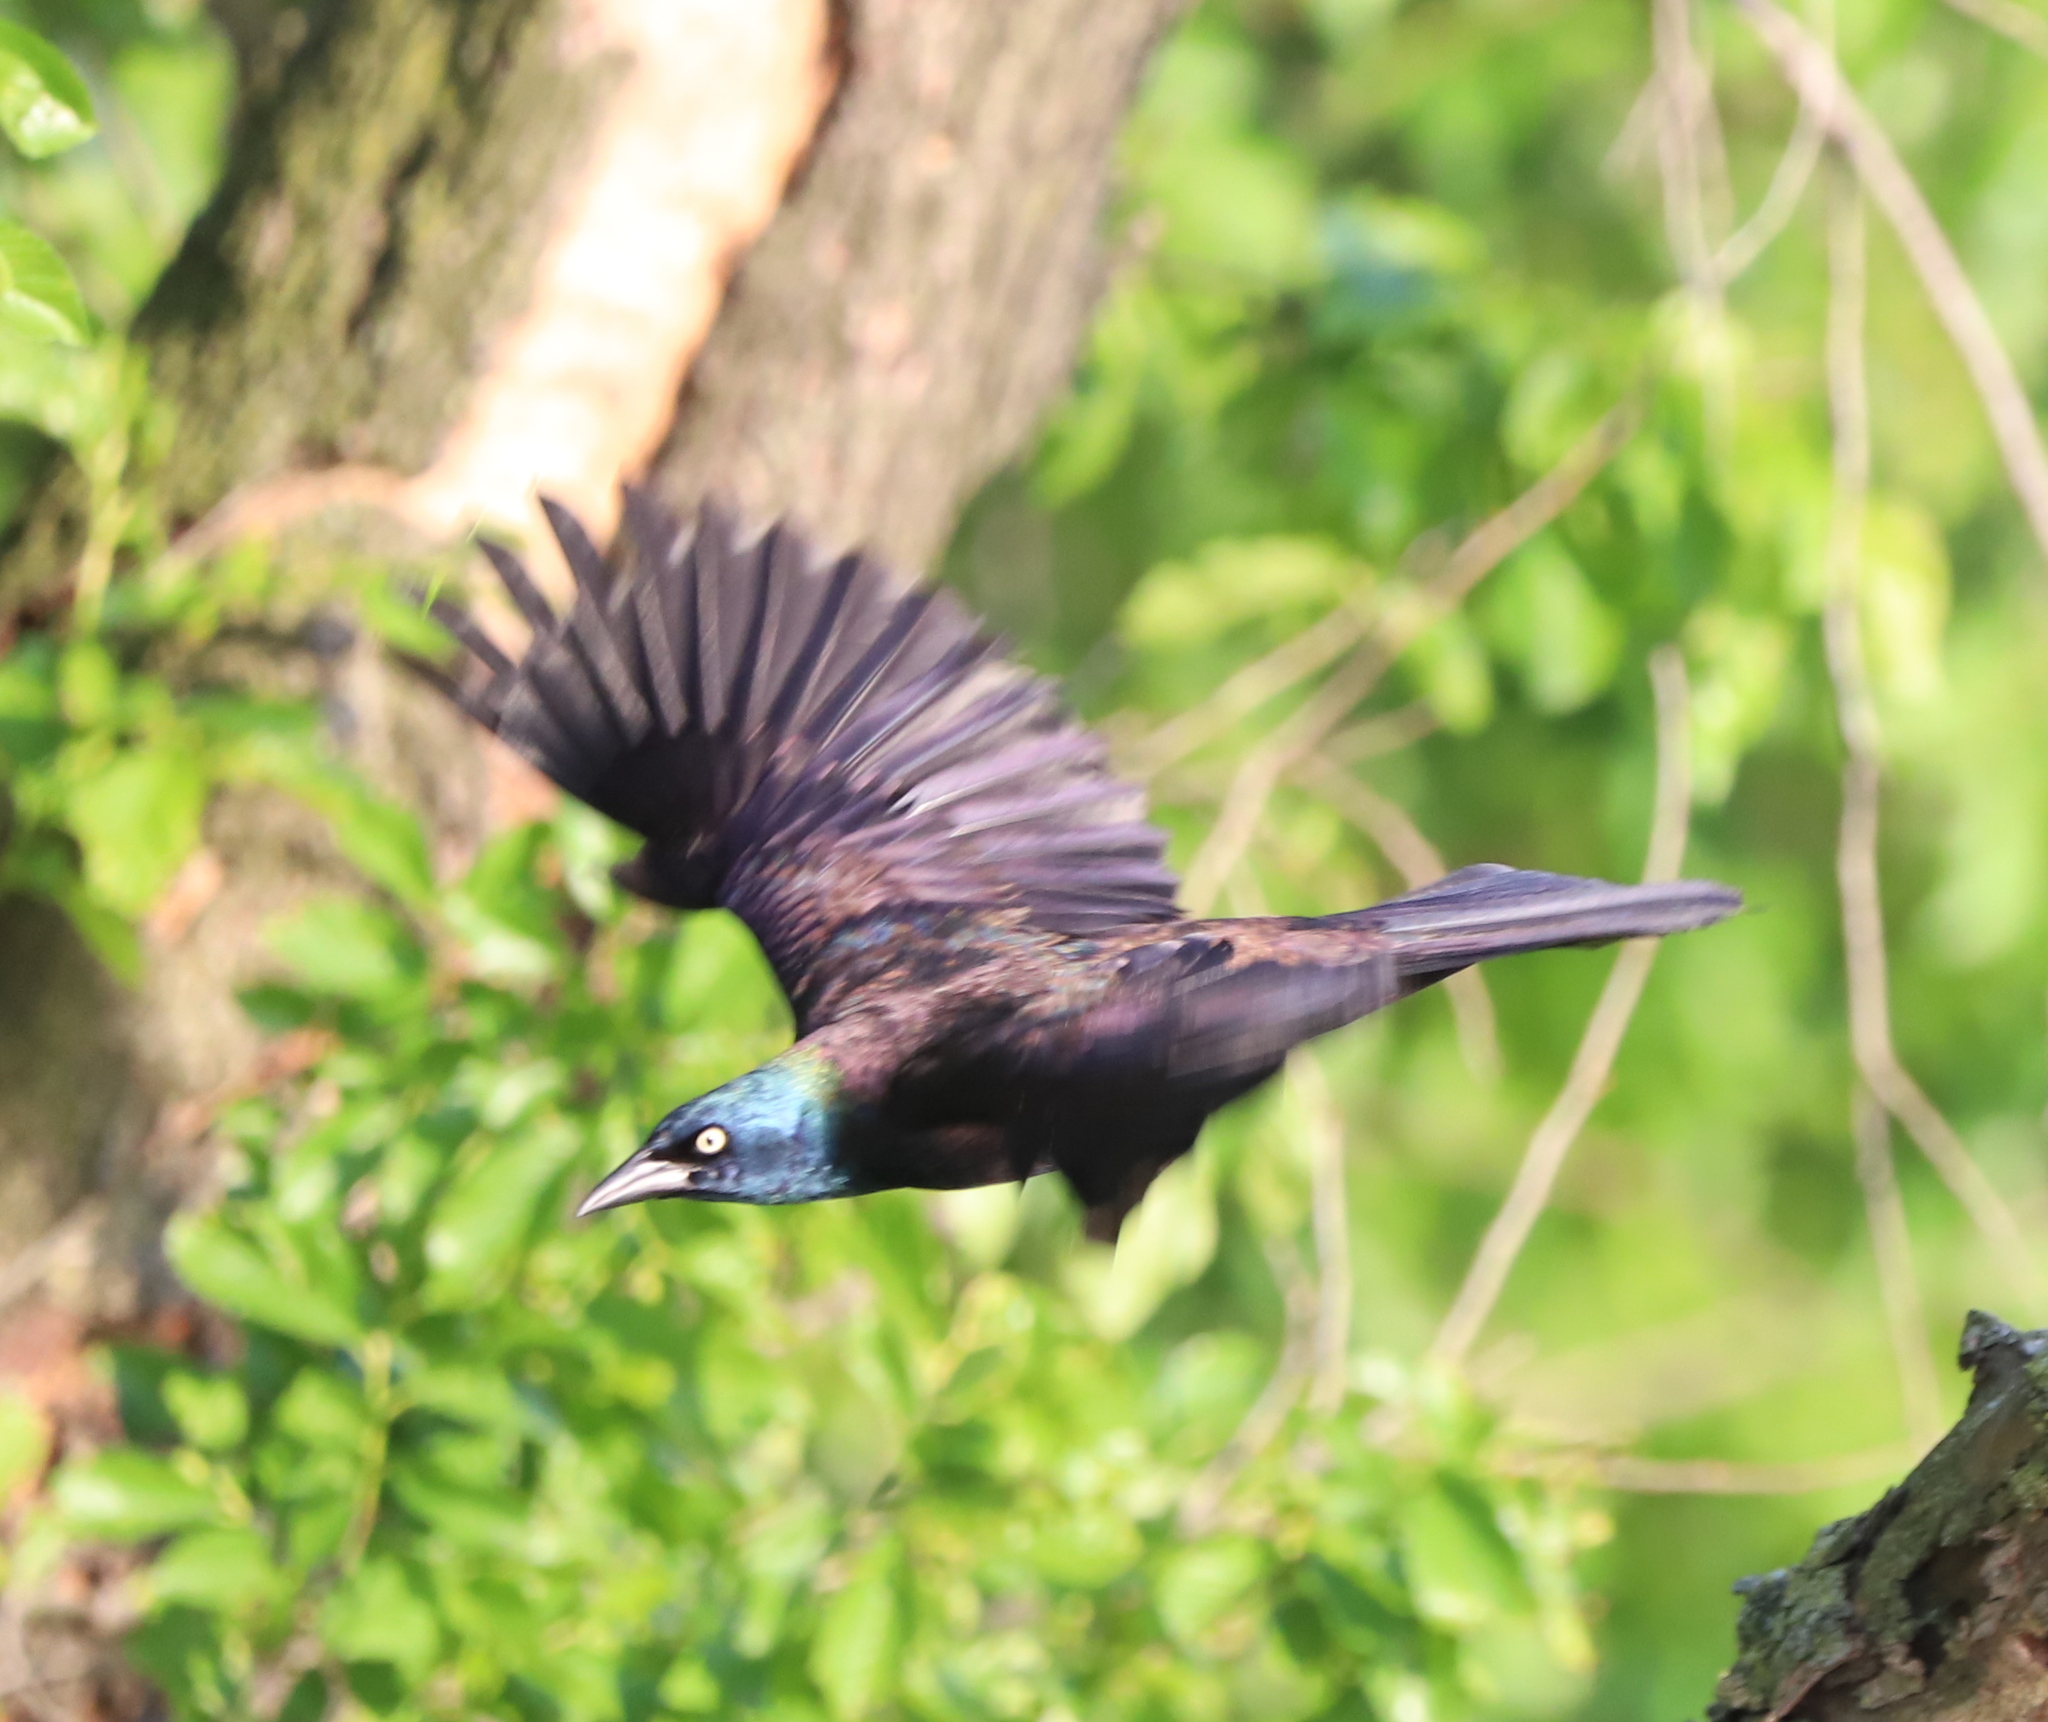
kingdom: Animalia
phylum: Chordata
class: Aves
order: Passeriformes
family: Icteridae
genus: Quiscalus
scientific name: Quiscalus quiscula
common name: Common grackle
